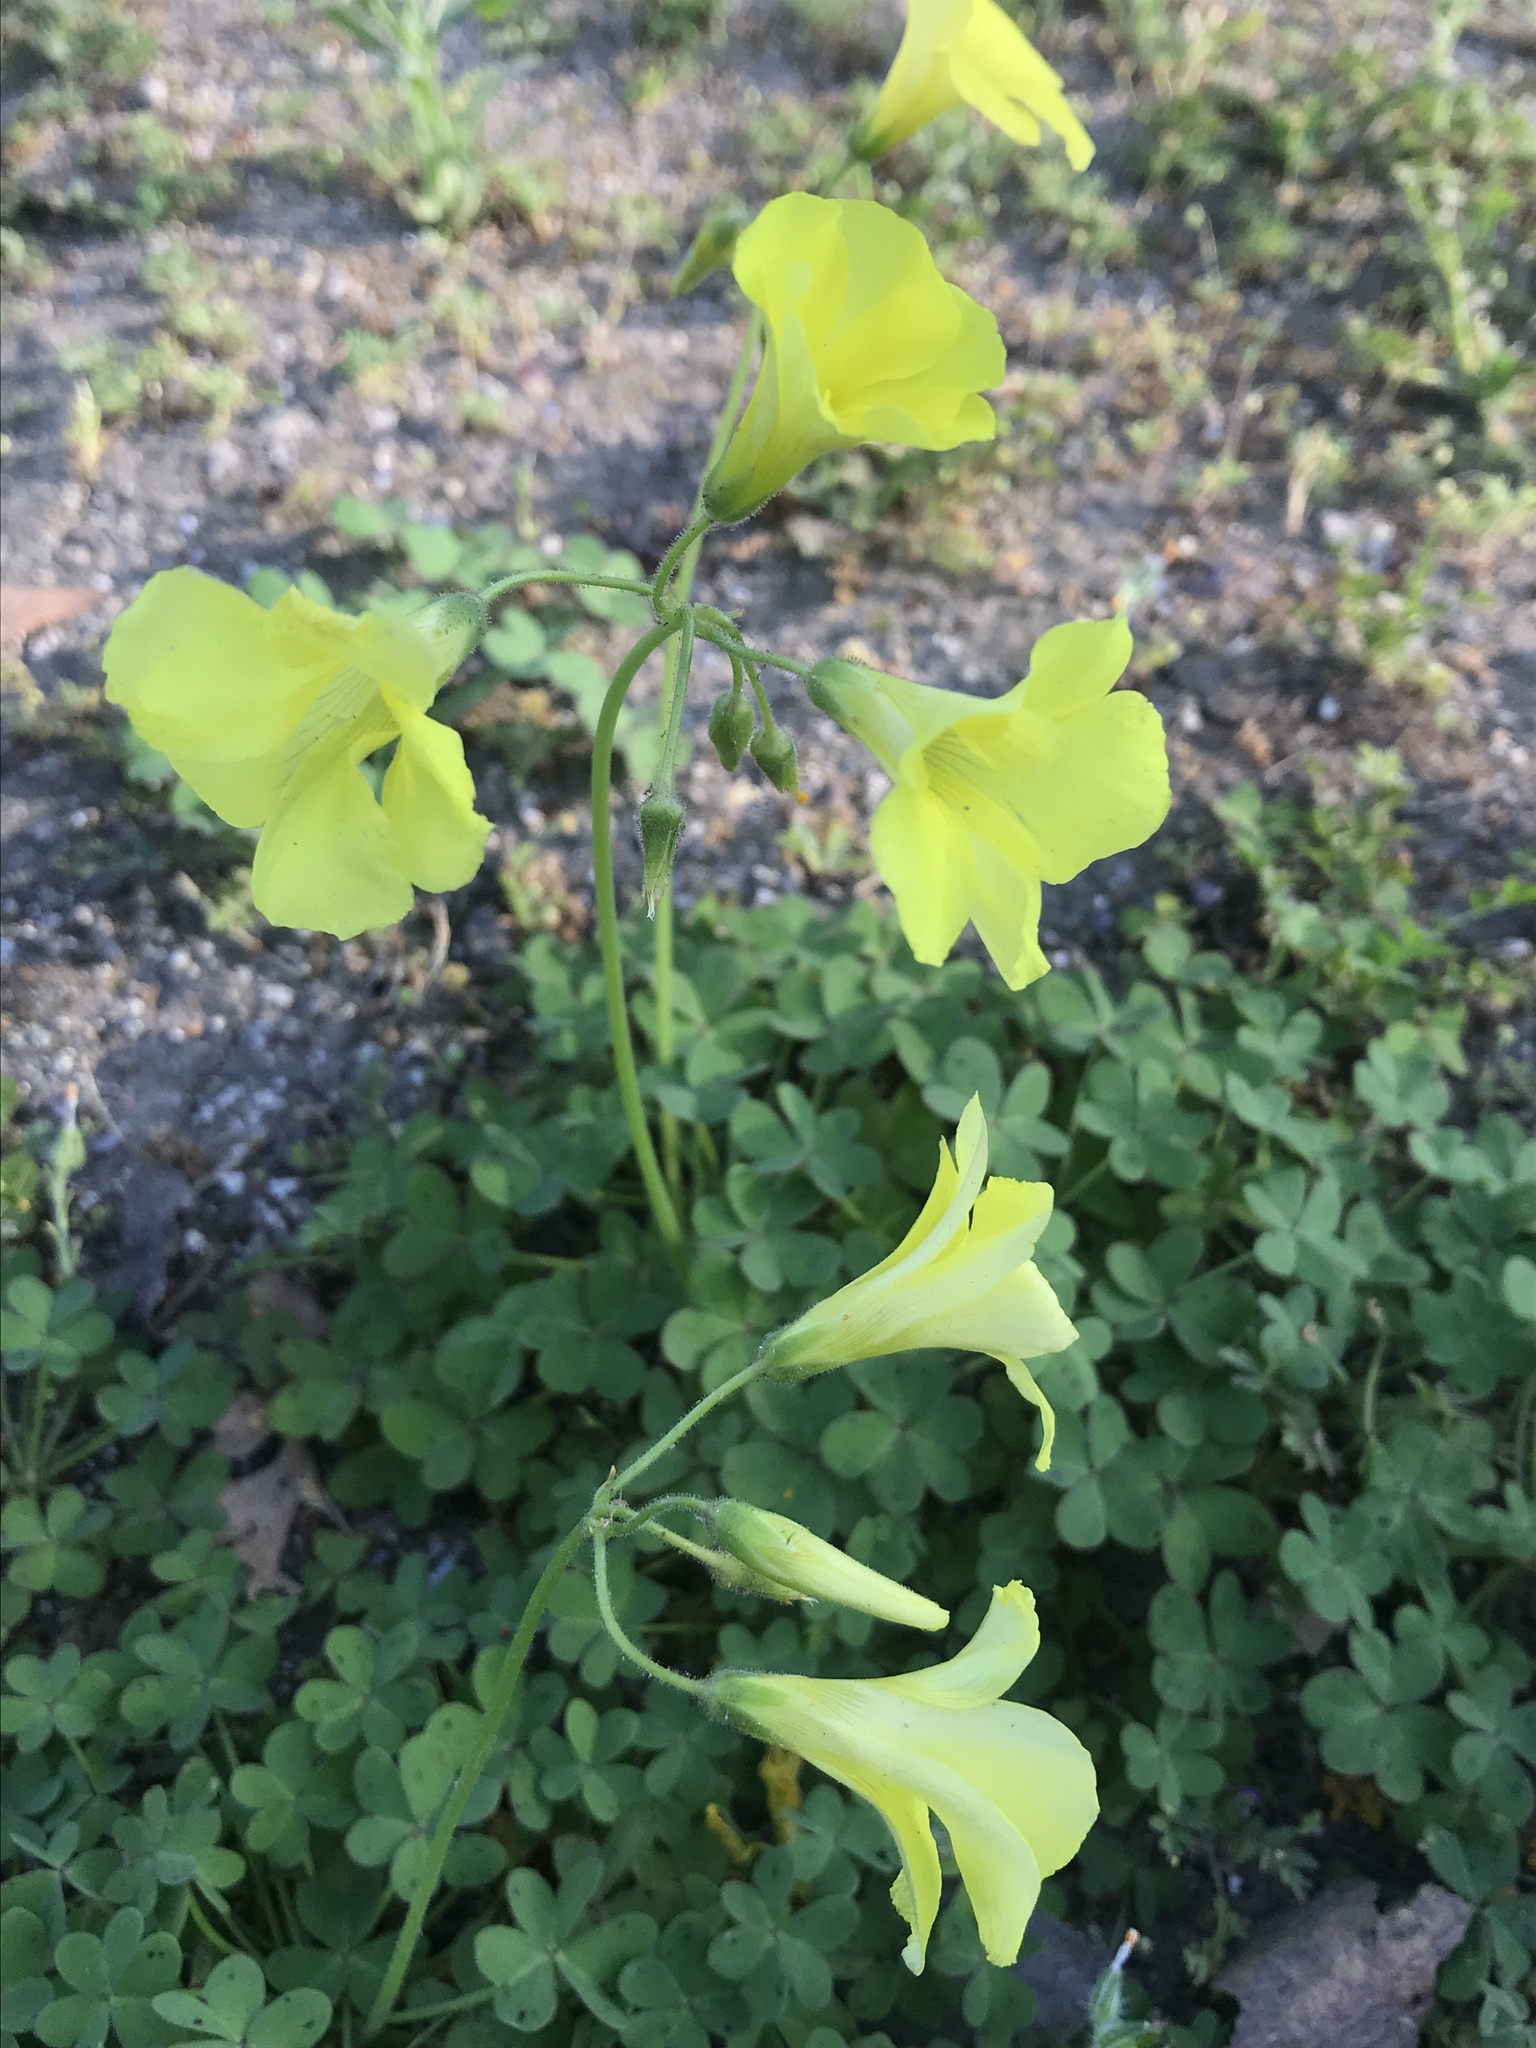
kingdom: Plantae
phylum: Tracheophyta
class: Magnoliopsida
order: Oxalidales
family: Oxalidaceae
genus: Oxalis
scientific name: Oxalis pes-caprae
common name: Bermuda-buttercup
